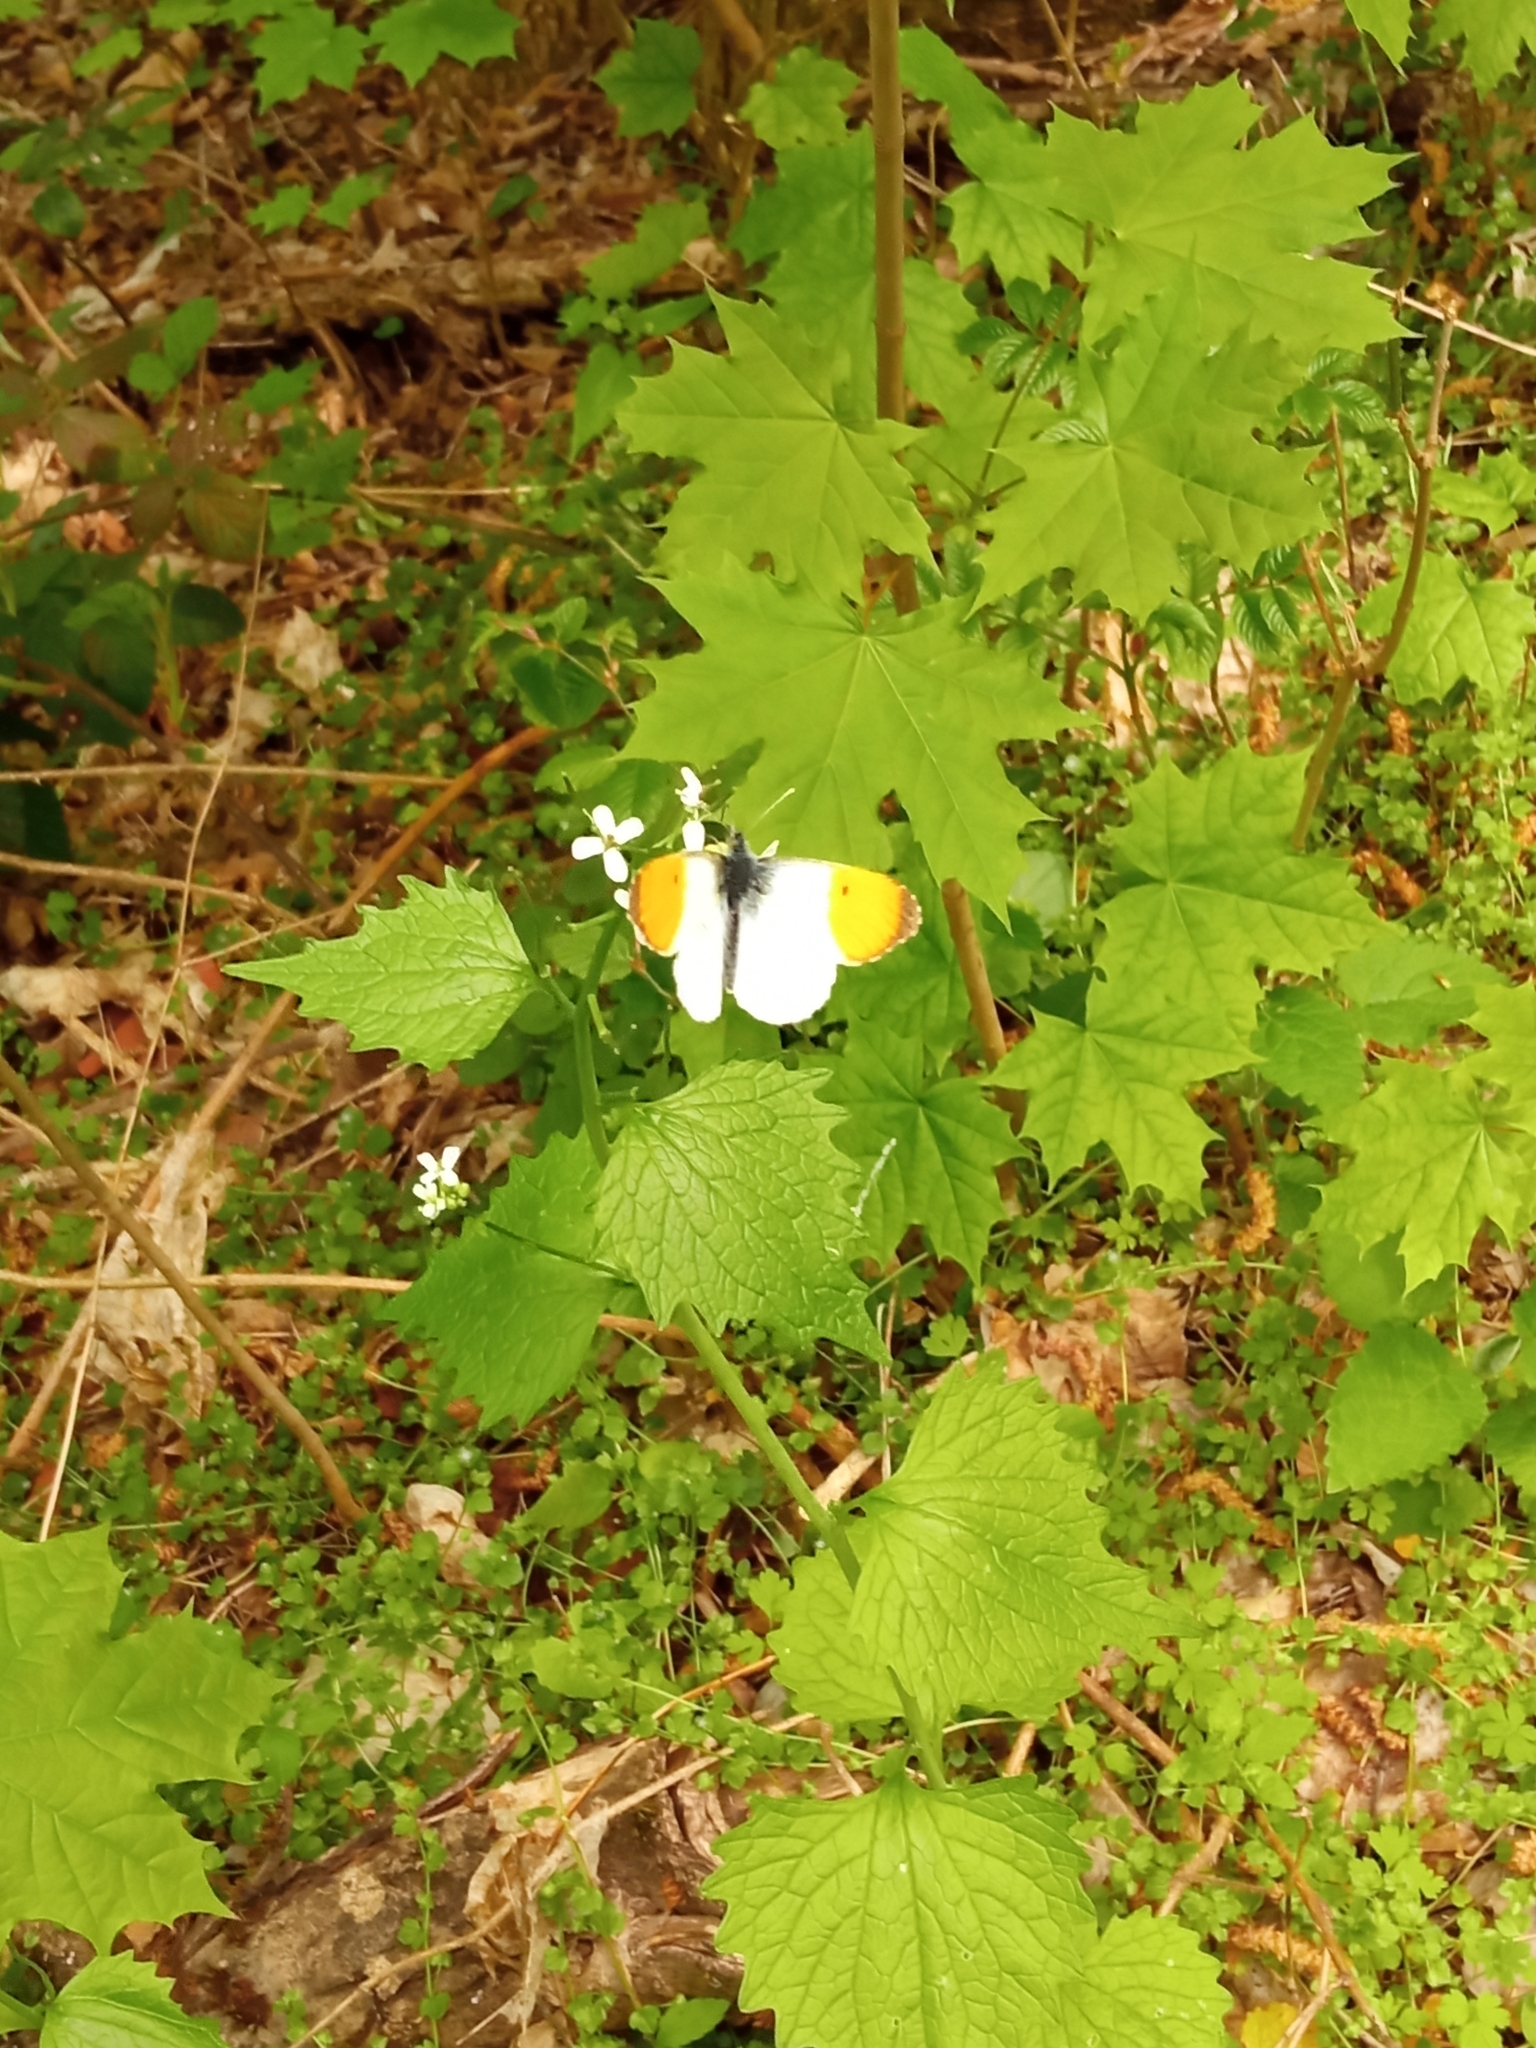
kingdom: Animalia
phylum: Arthropoda
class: Insecta
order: Lepidoptera
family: Pieridae
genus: Anthocharis
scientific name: Anthocharis cardamines
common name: Orange-tip
